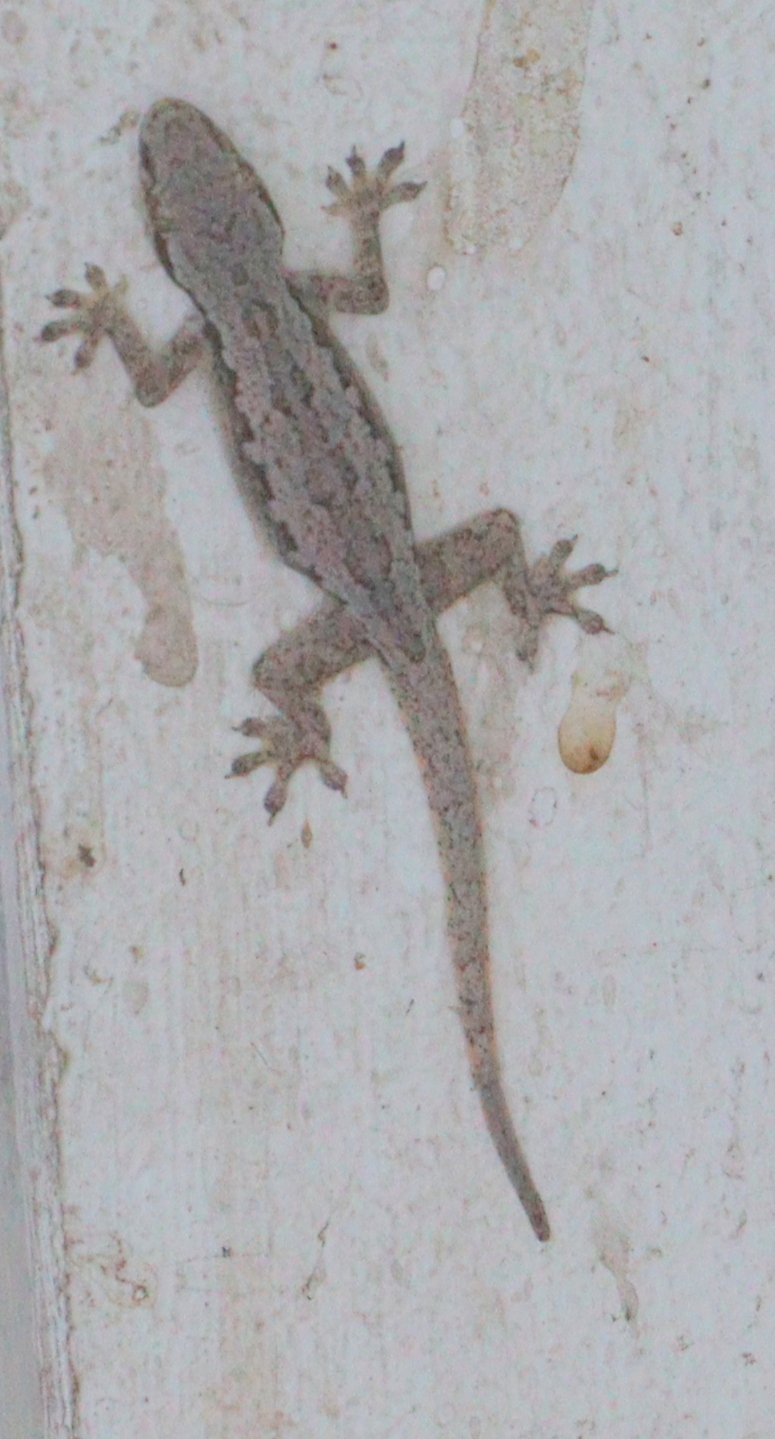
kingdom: Animalia
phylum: Chordata
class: Squamata
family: Gekkonidae
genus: Hemidactylus
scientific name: Hemidactylus platyurus
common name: Flat-tailed house gecko
